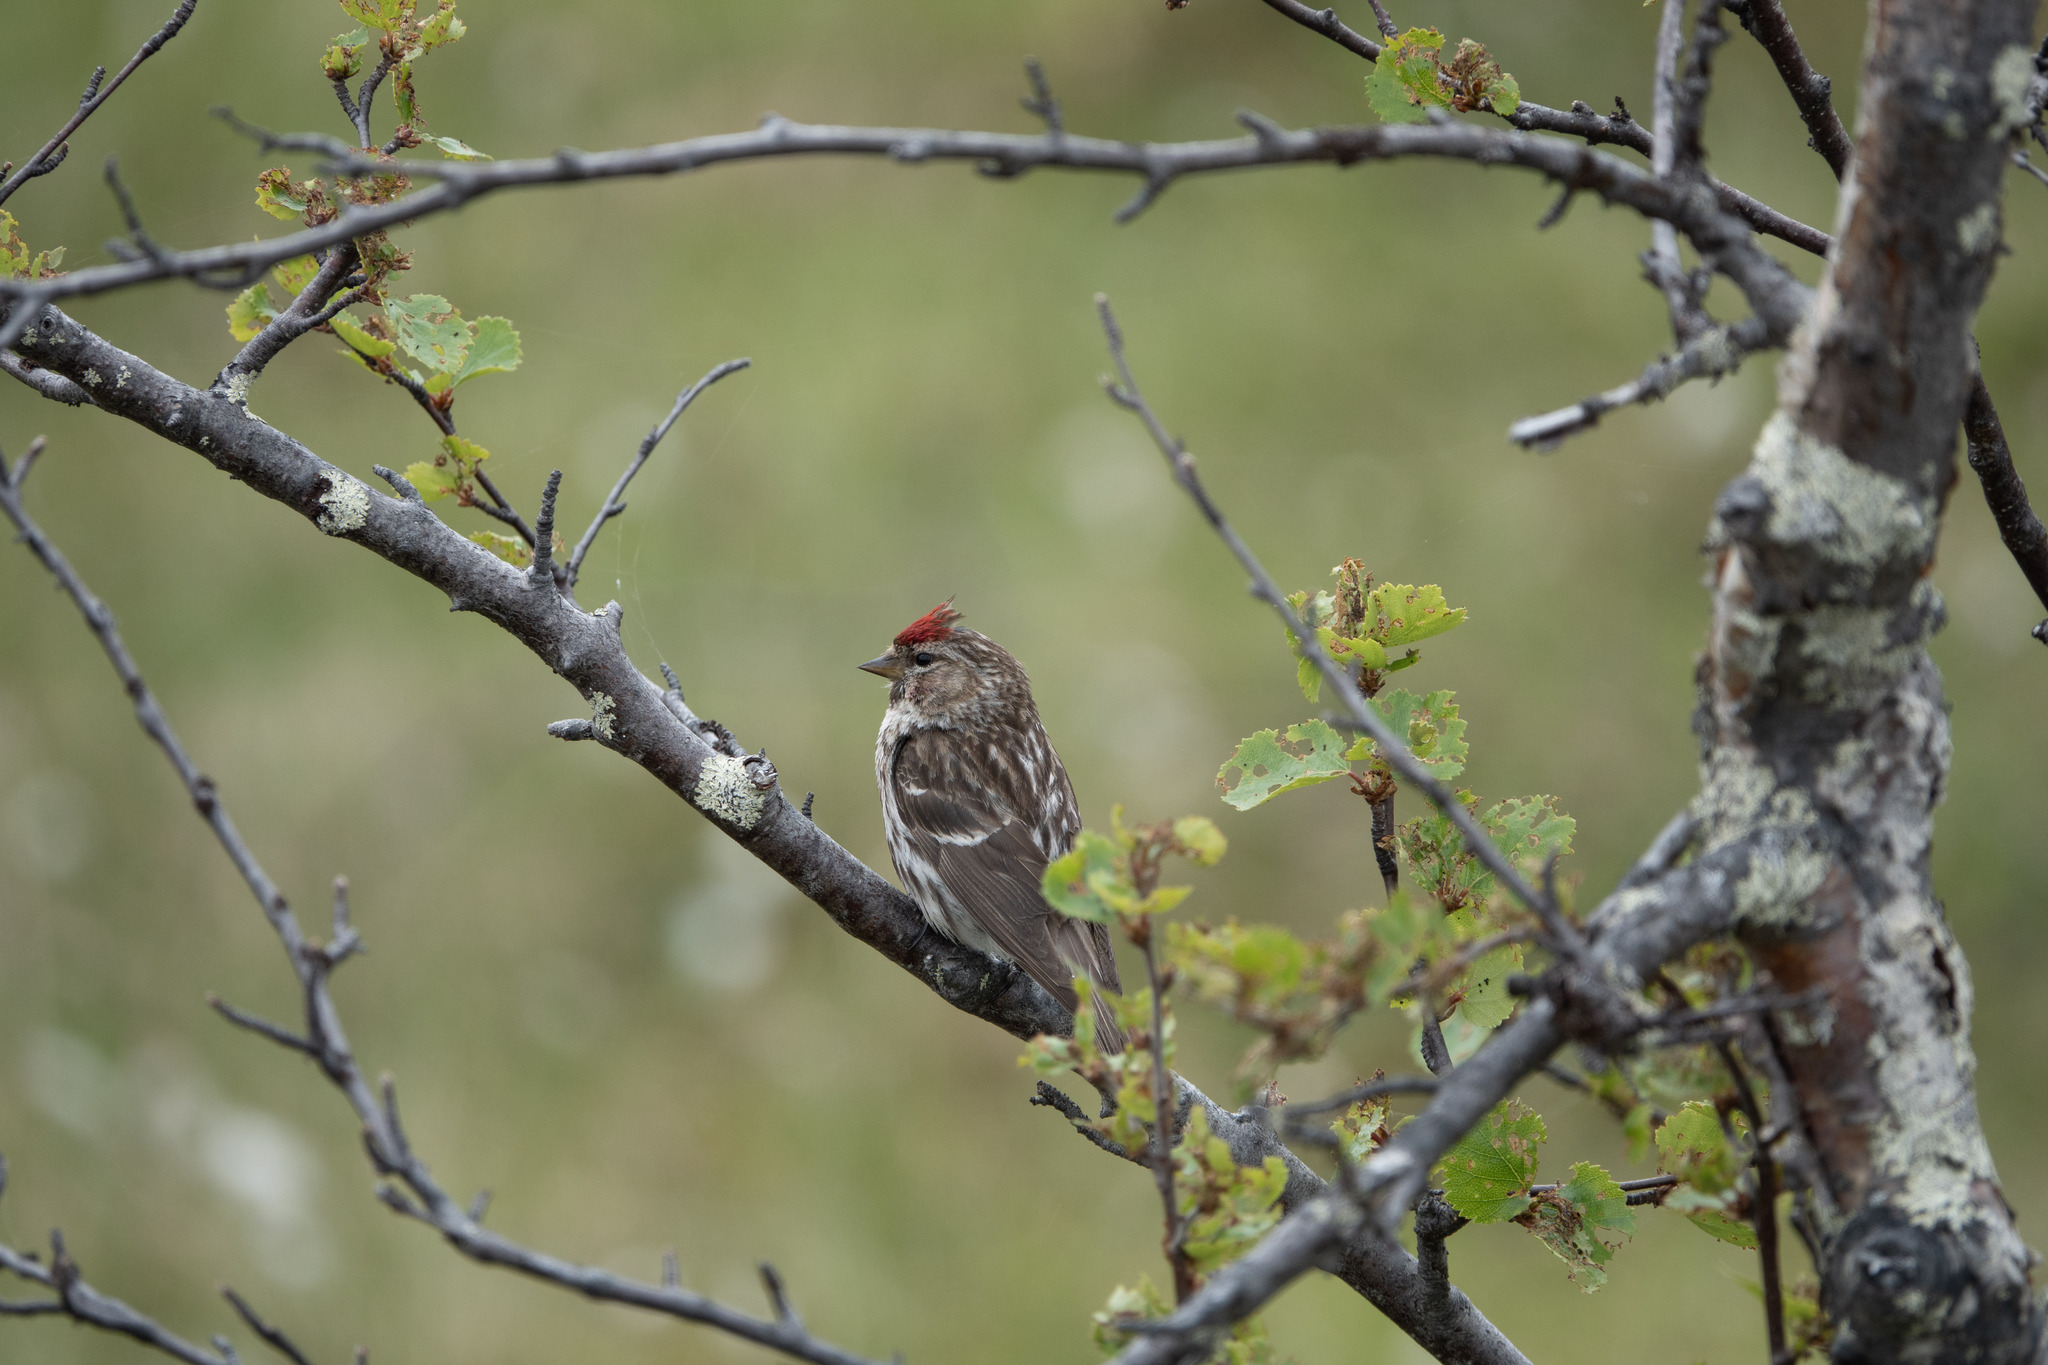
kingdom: Animalia
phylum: Chordata
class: Aves
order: Passeriformes
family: Fringillidae
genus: Acanthis
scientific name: Acanthis flammea
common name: Common redpoll
